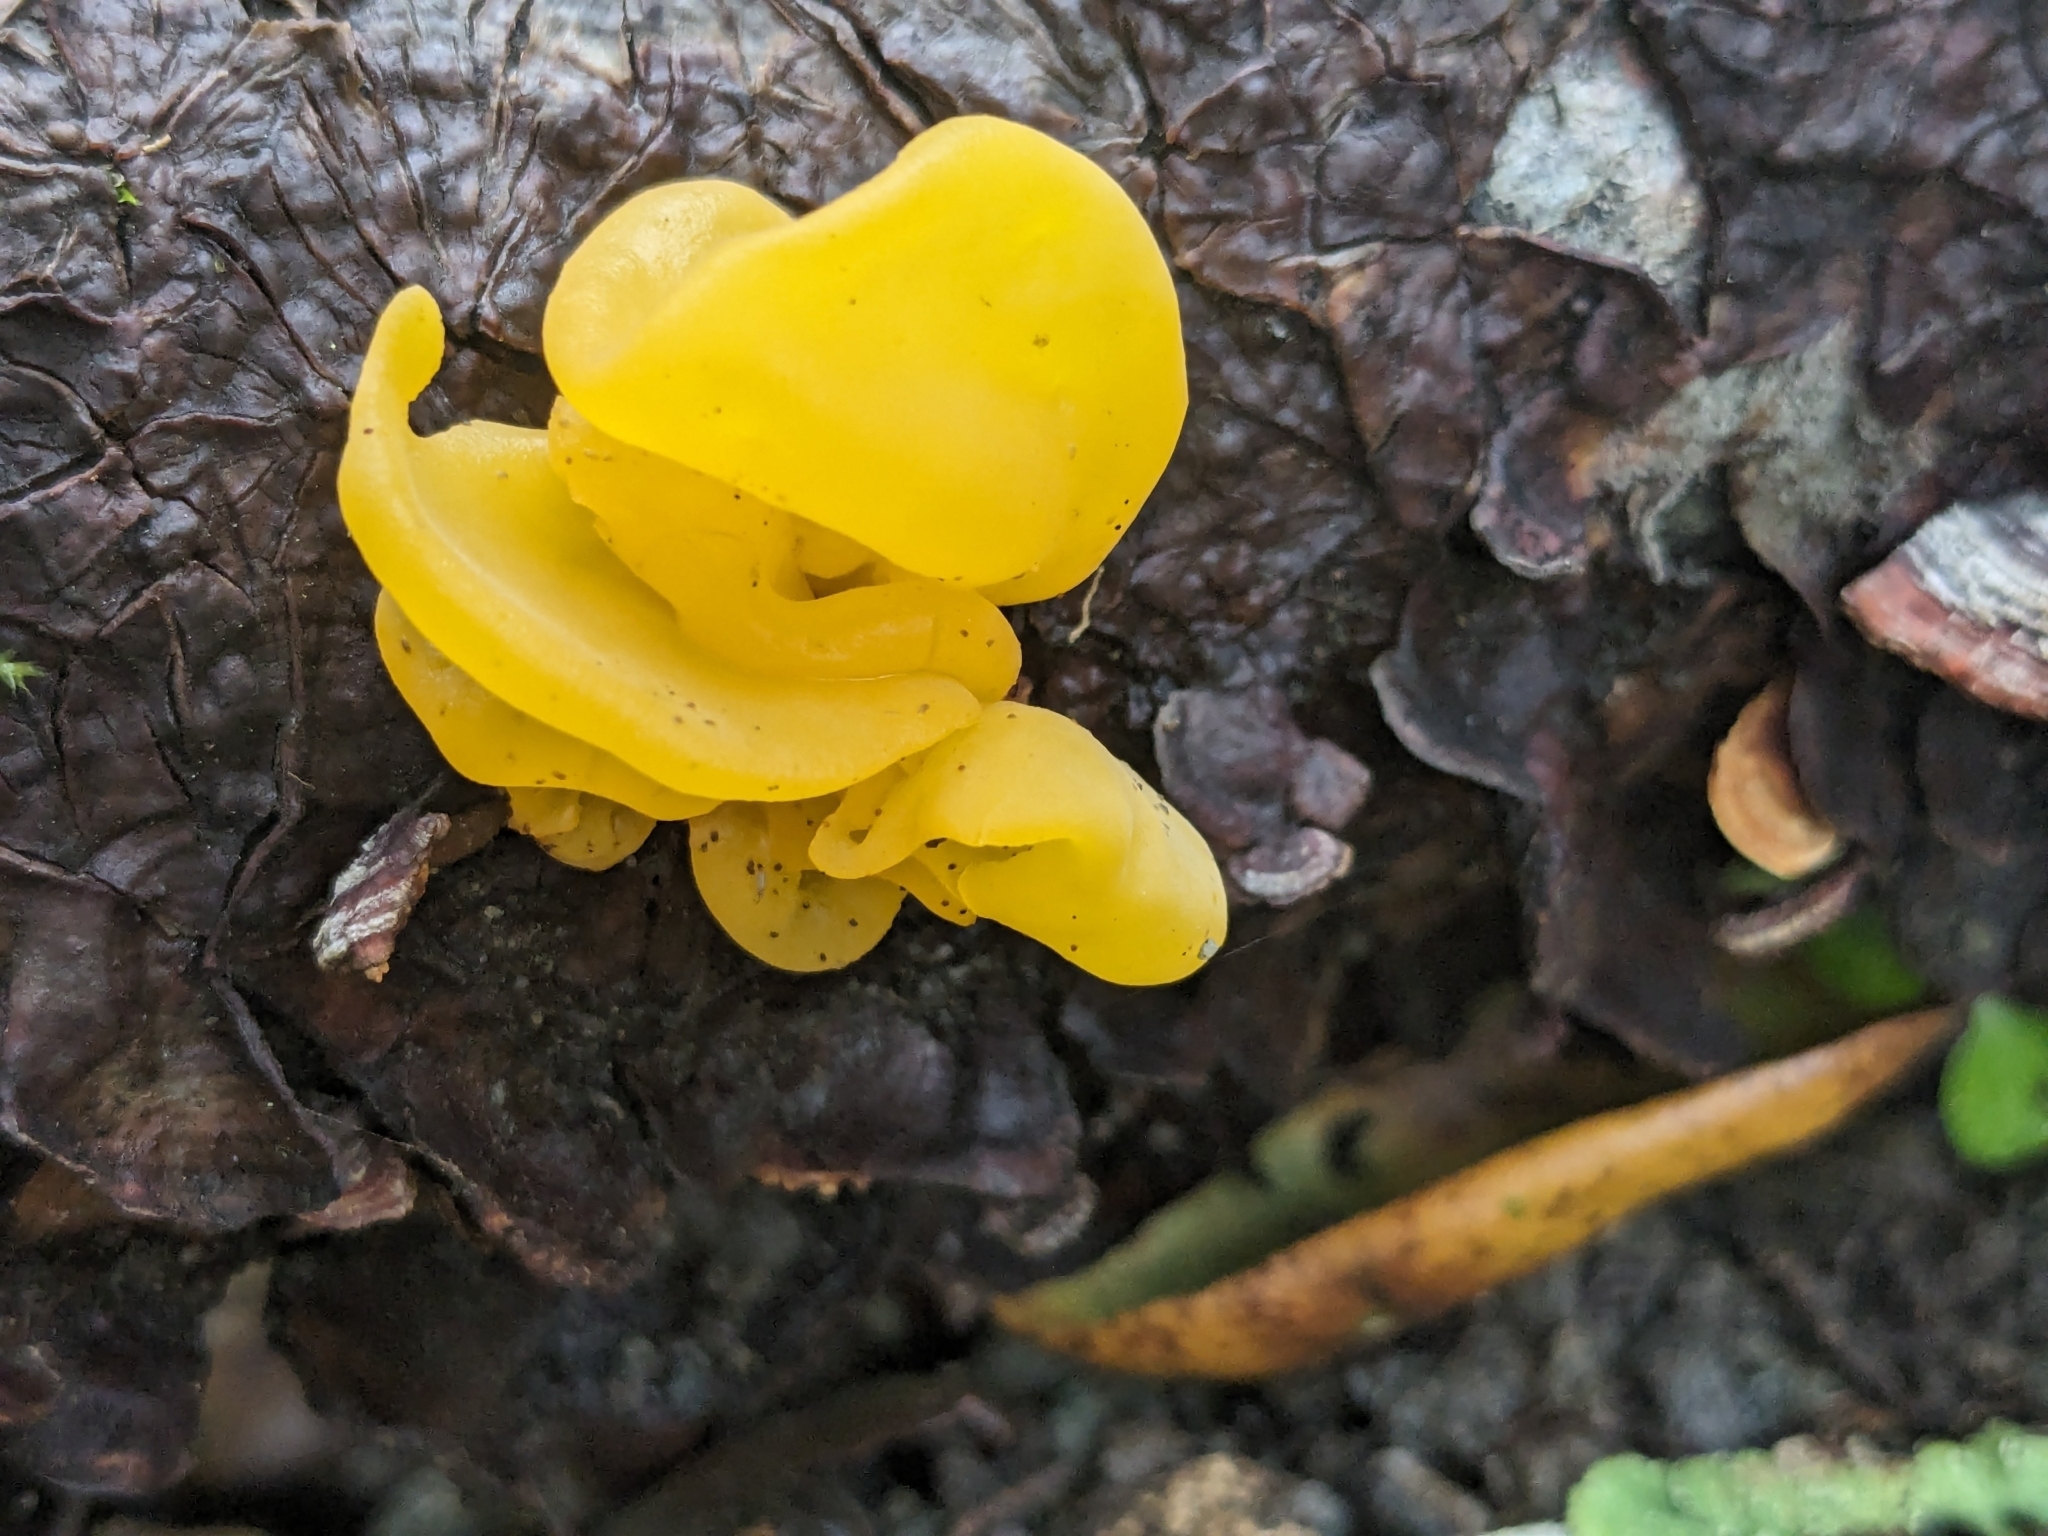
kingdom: Fungi
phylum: Basidiomycota
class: Tremellomycetes
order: Tremellales
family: Naemateliaceae
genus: Naematelia
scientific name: Naematelia aurantia
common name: Golden ear
